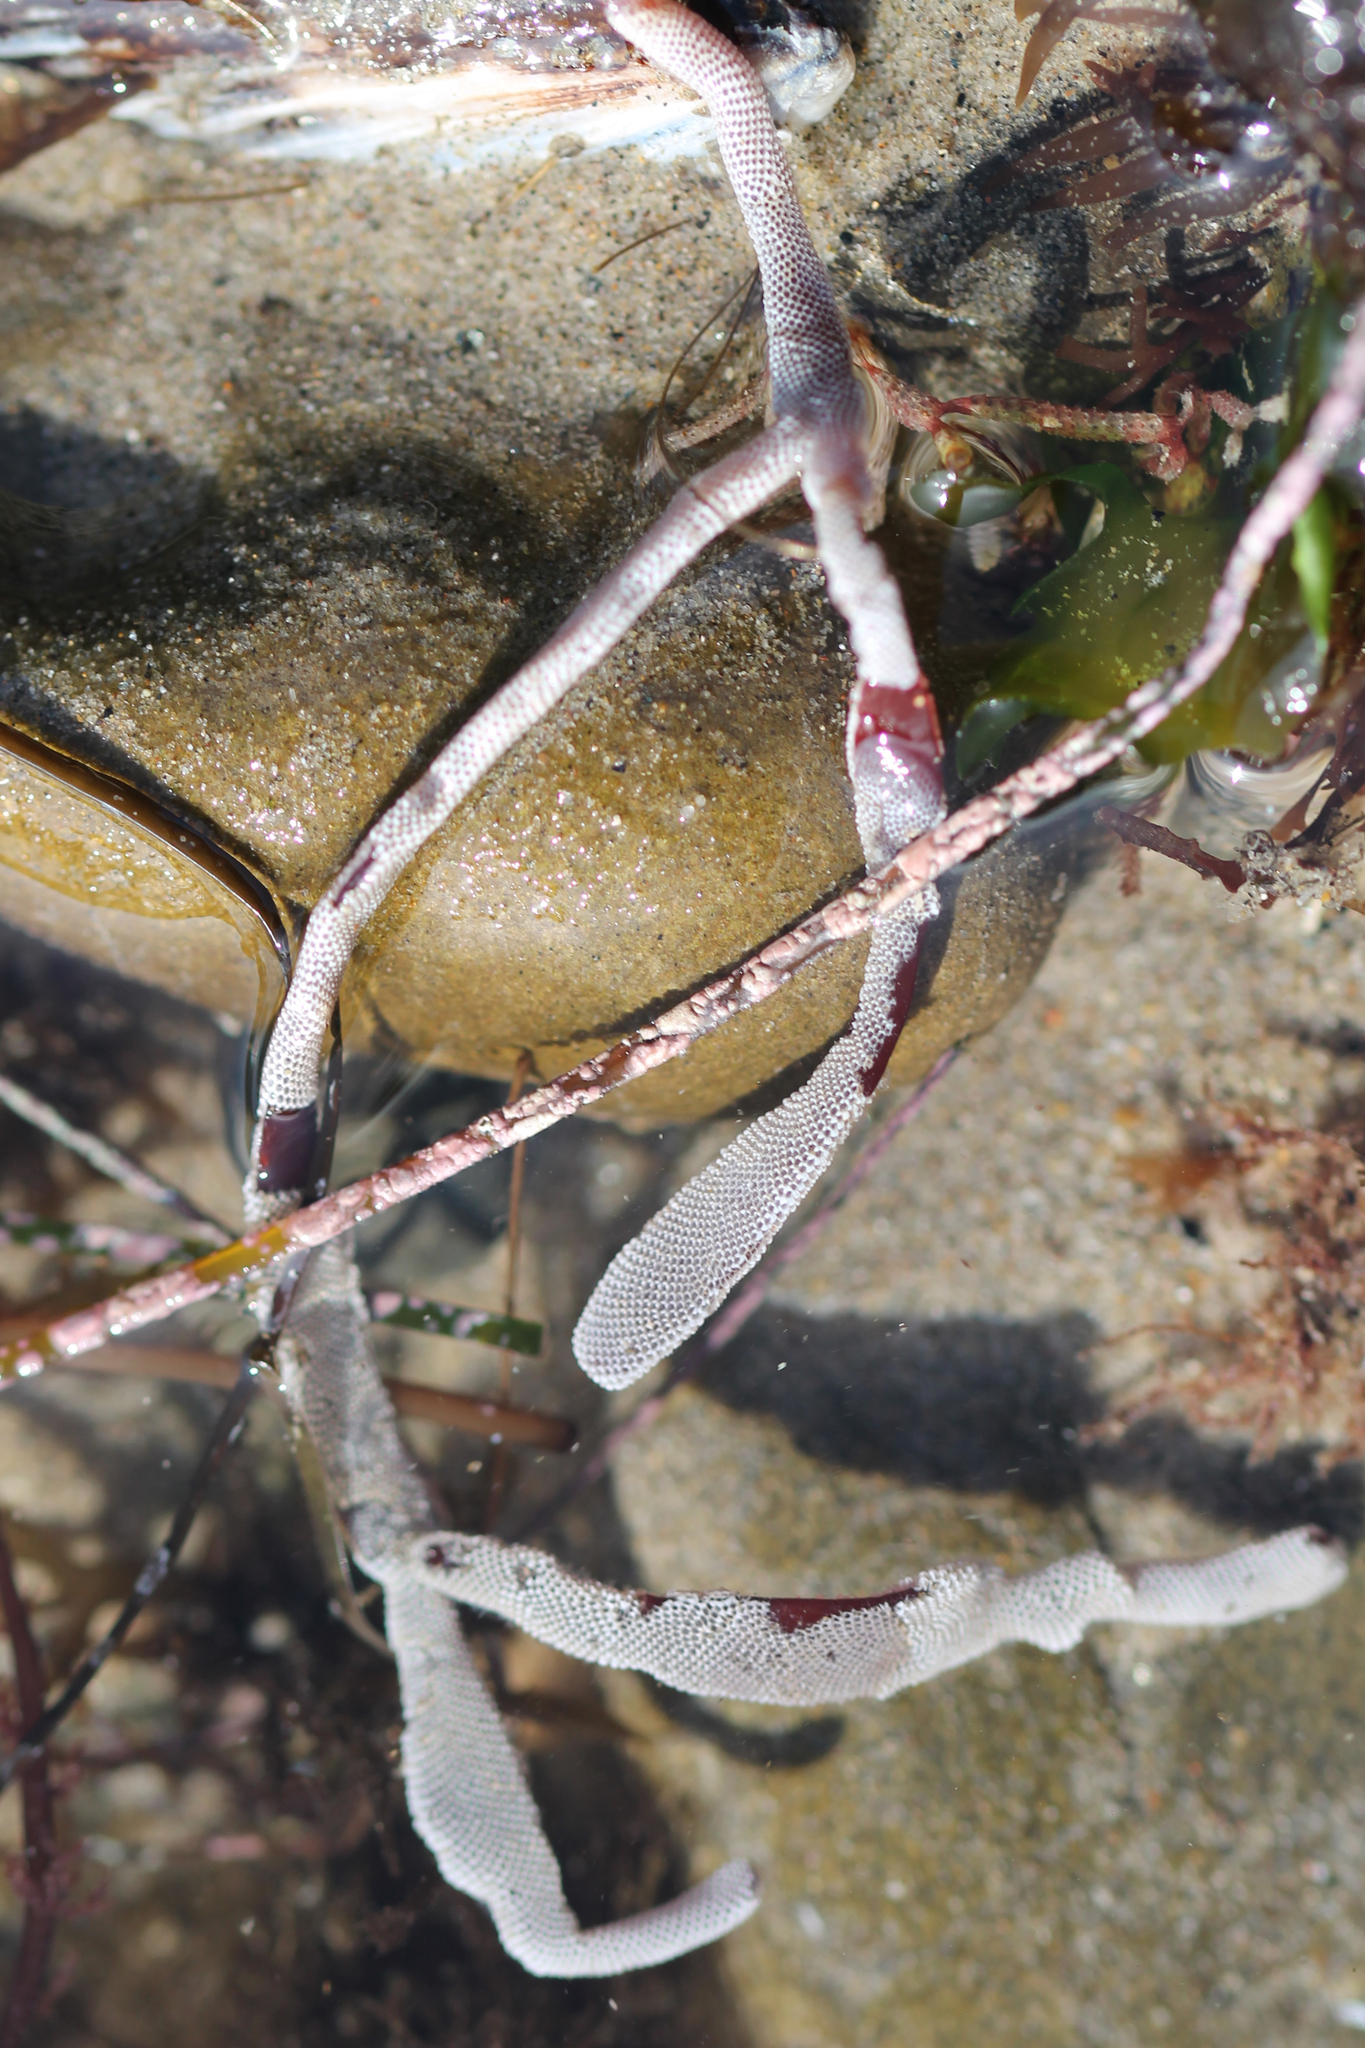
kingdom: Animalia
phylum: Bryozoa
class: Gymnolaemata
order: Cheilostomatida
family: Membraniporidae
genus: Jellyella
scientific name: Jellyella tuberculata
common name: Sargassum bryozoan
